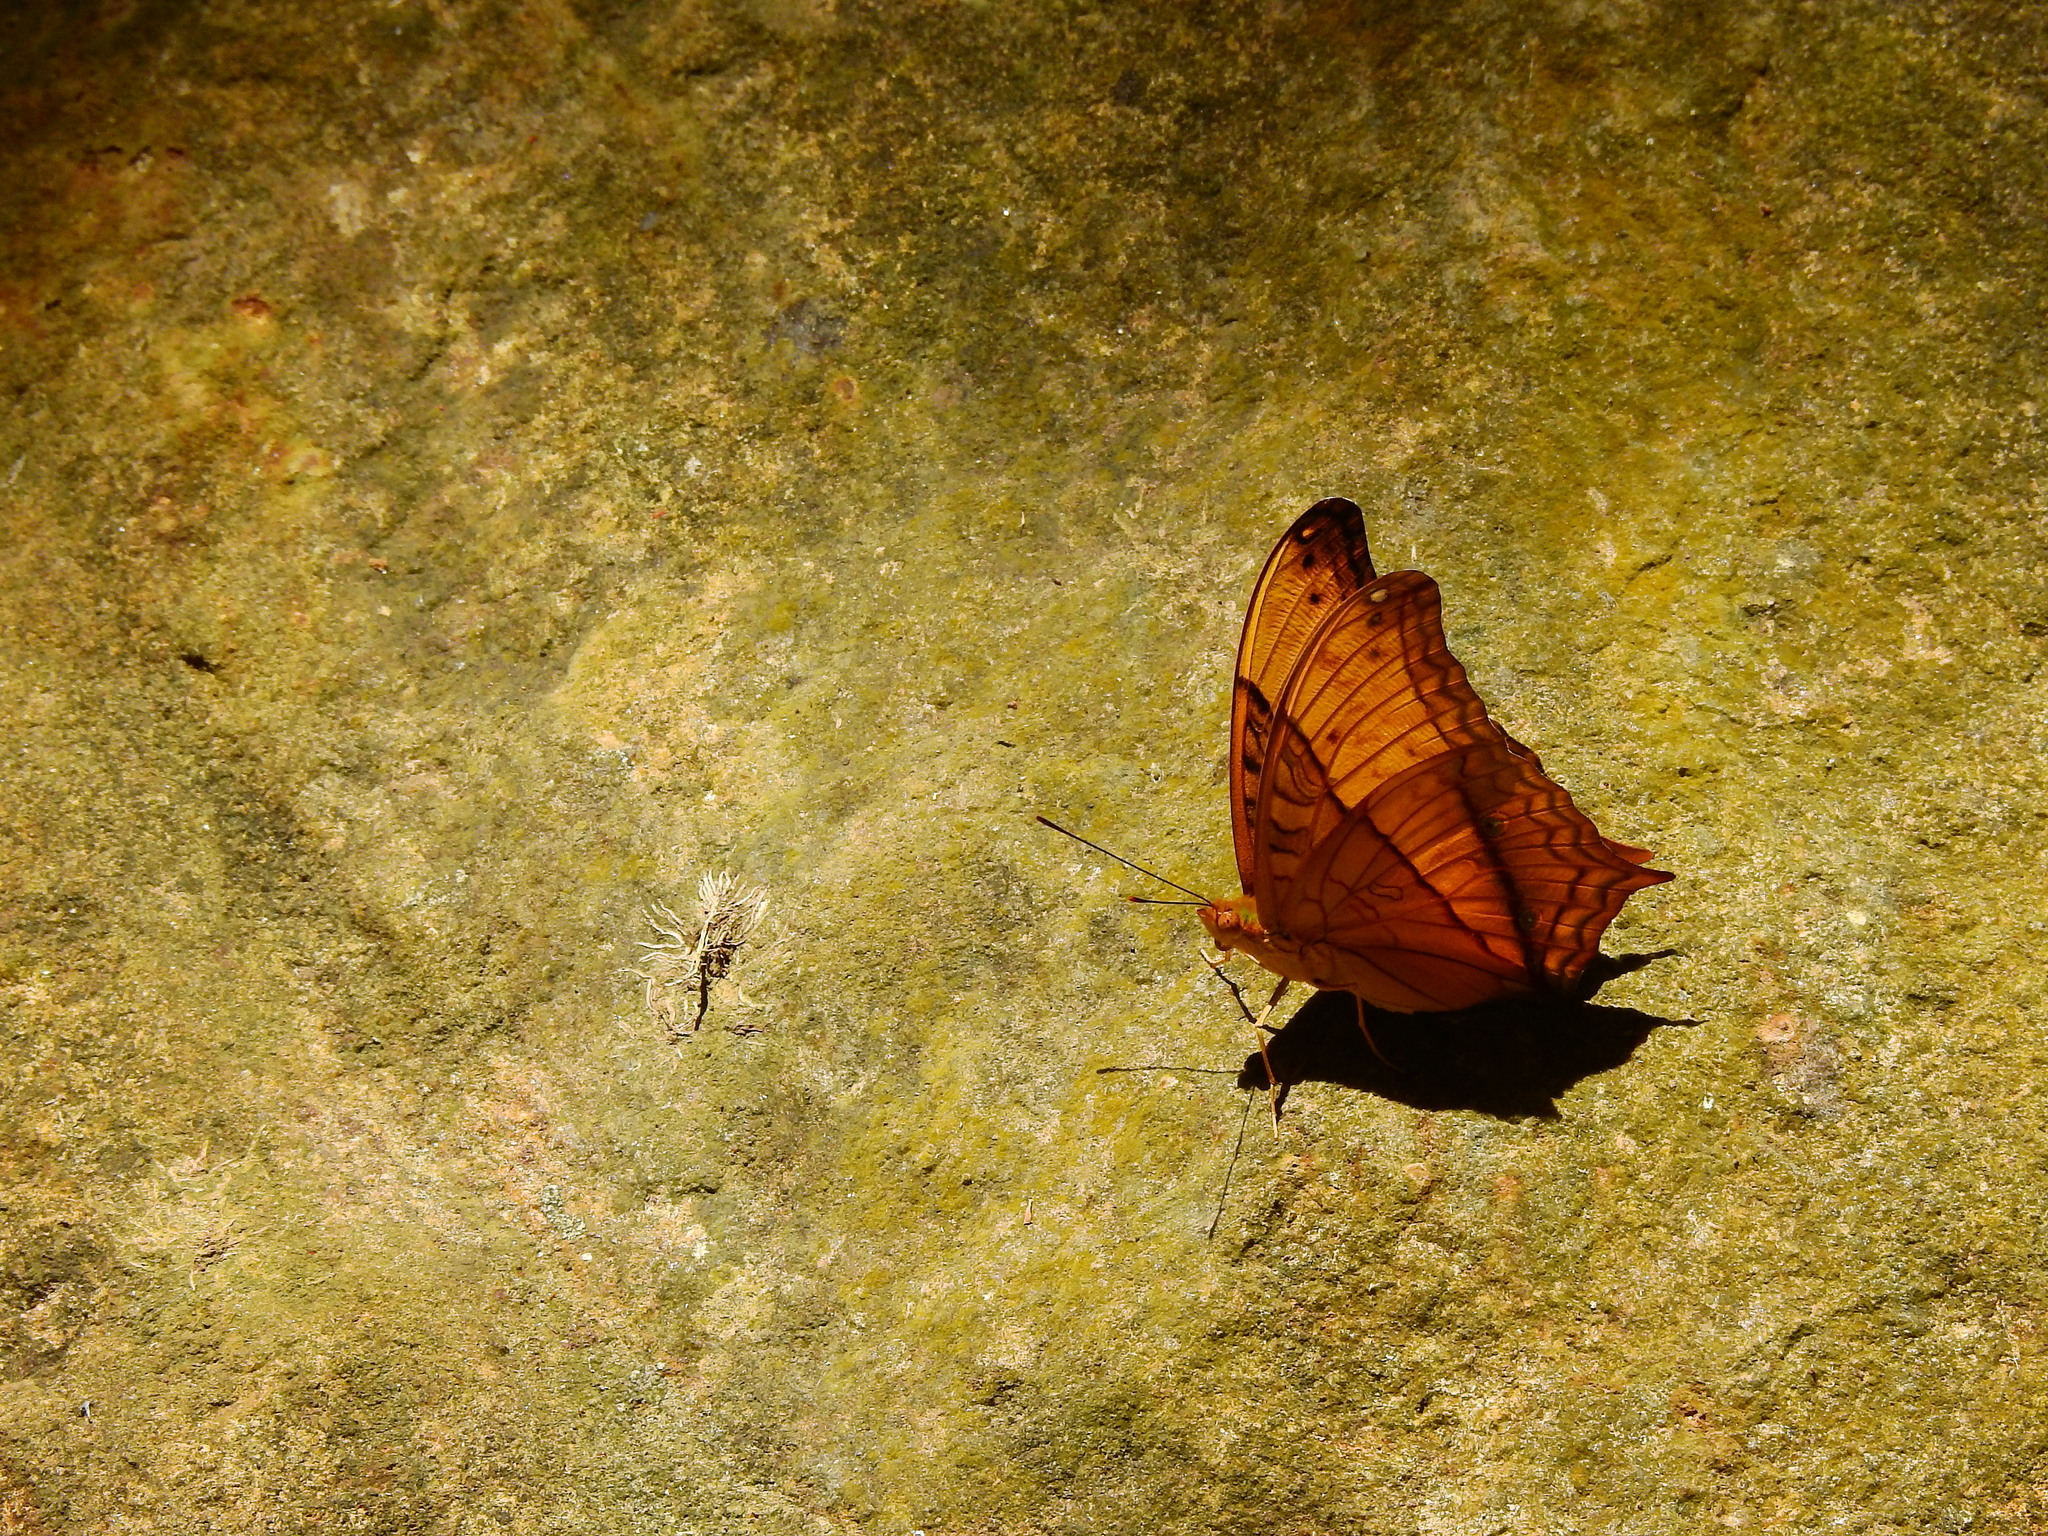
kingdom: Animalia
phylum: Arthropoda
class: Insecta
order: Lepidoptera
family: Nymphalidae
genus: Vindula
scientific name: Vindula erota
